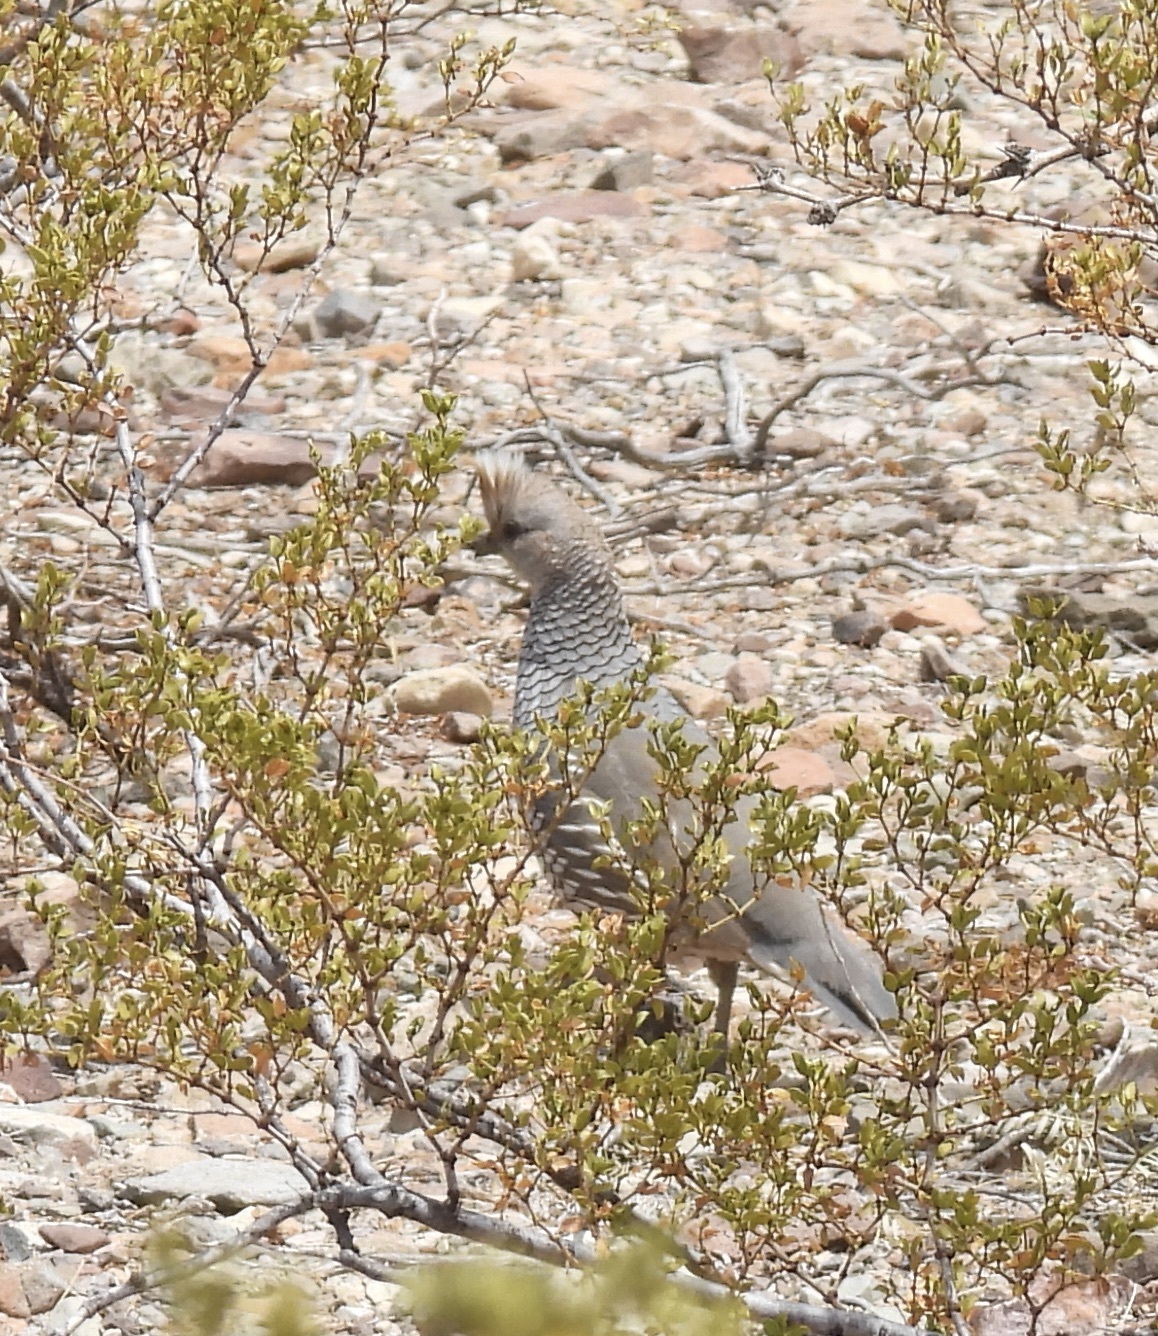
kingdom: Animalia
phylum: Chordata
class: Aves
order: Galliformes
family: Odontophoridae
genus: Callipepla
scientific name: Callipepla squamata
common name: Scaled quail
